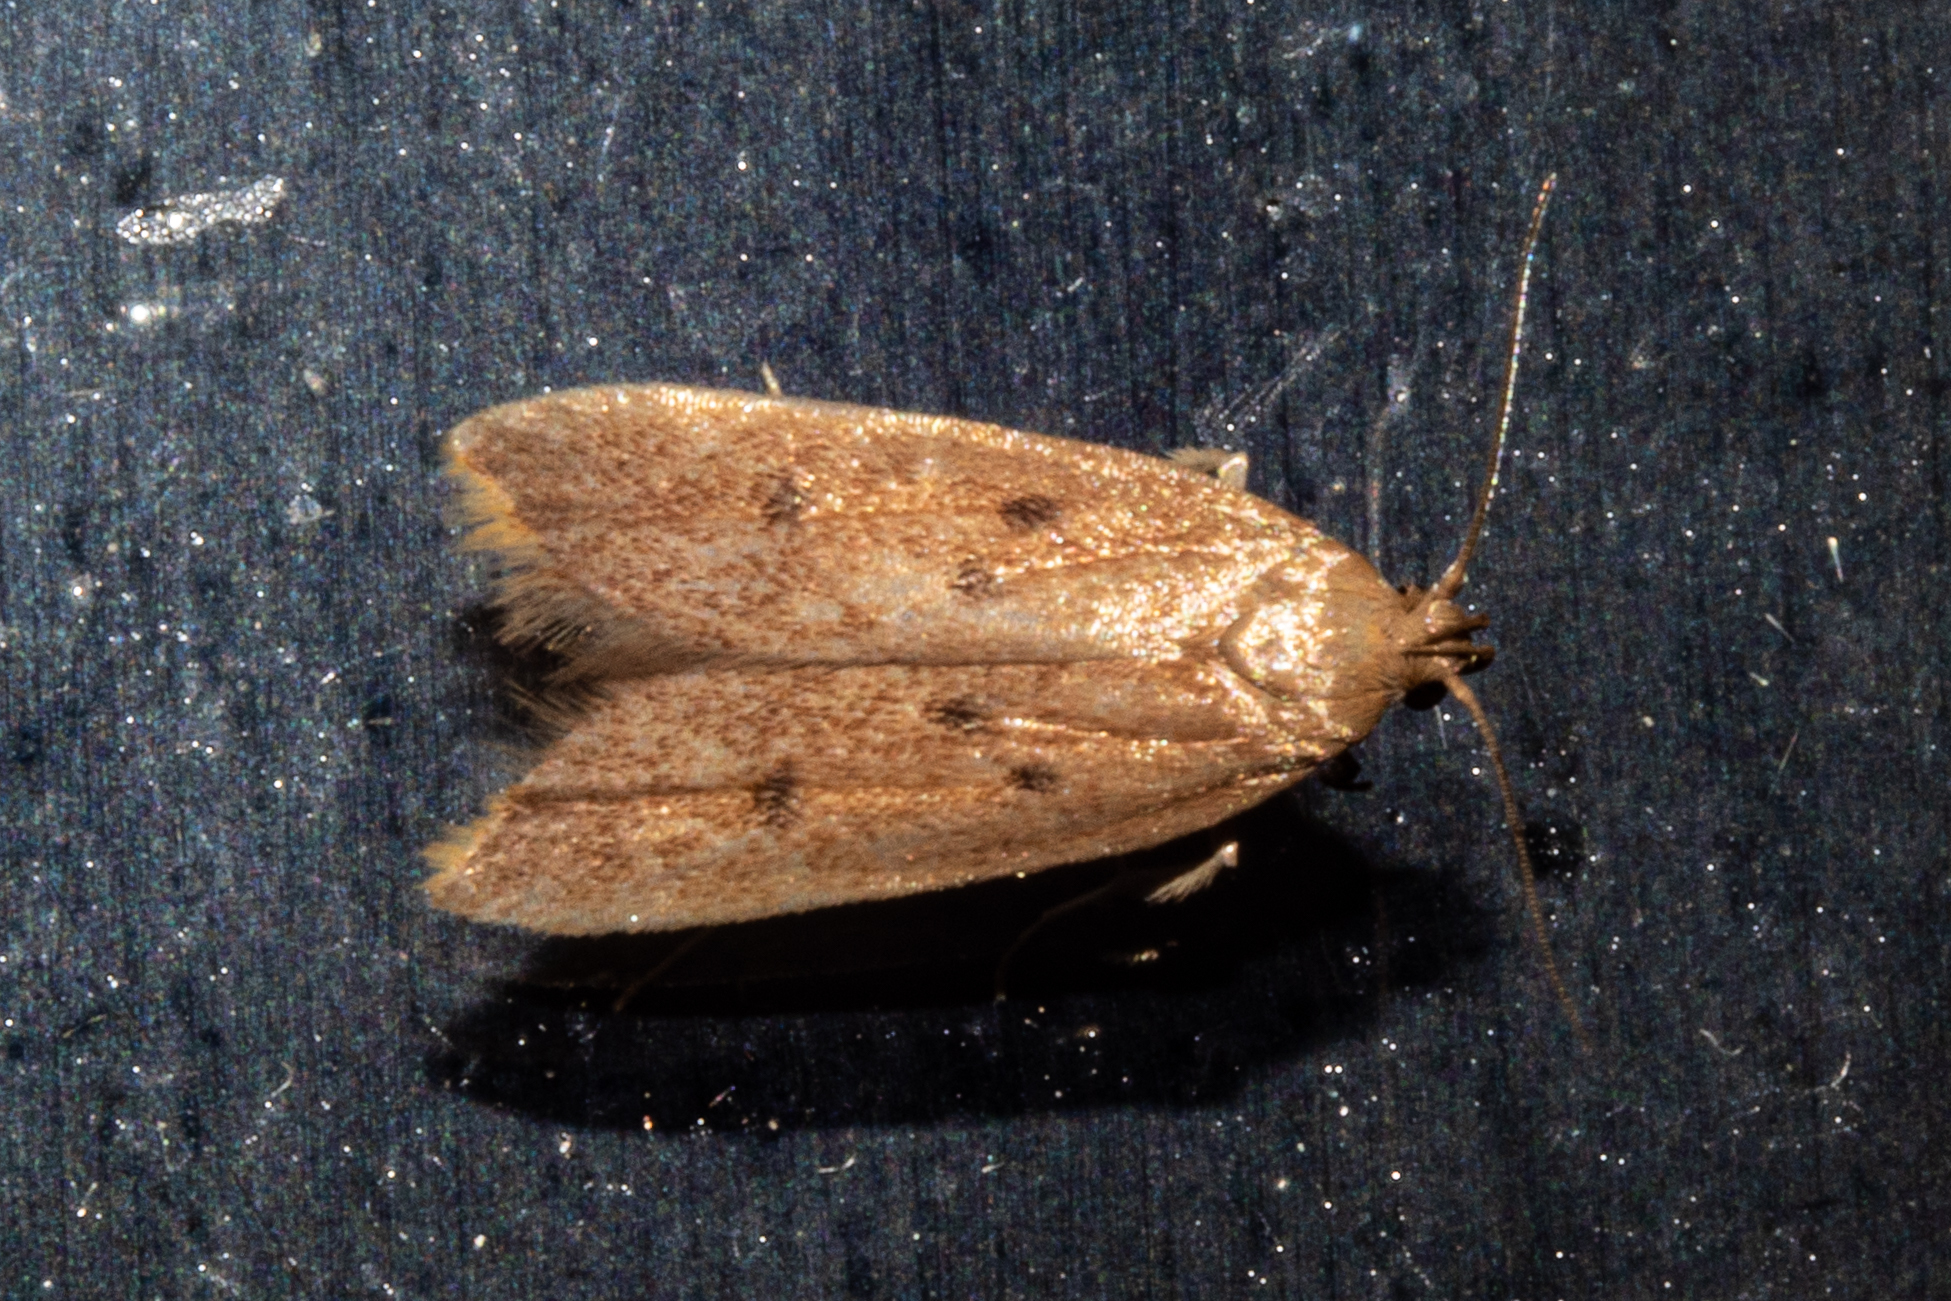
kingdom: Animalia
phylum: Arthropoda
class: Insecta
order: Lepidoptera
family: Oecophoridae
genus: Tachystola
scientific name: Tachystola acroxantha
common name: Ruddy streak
